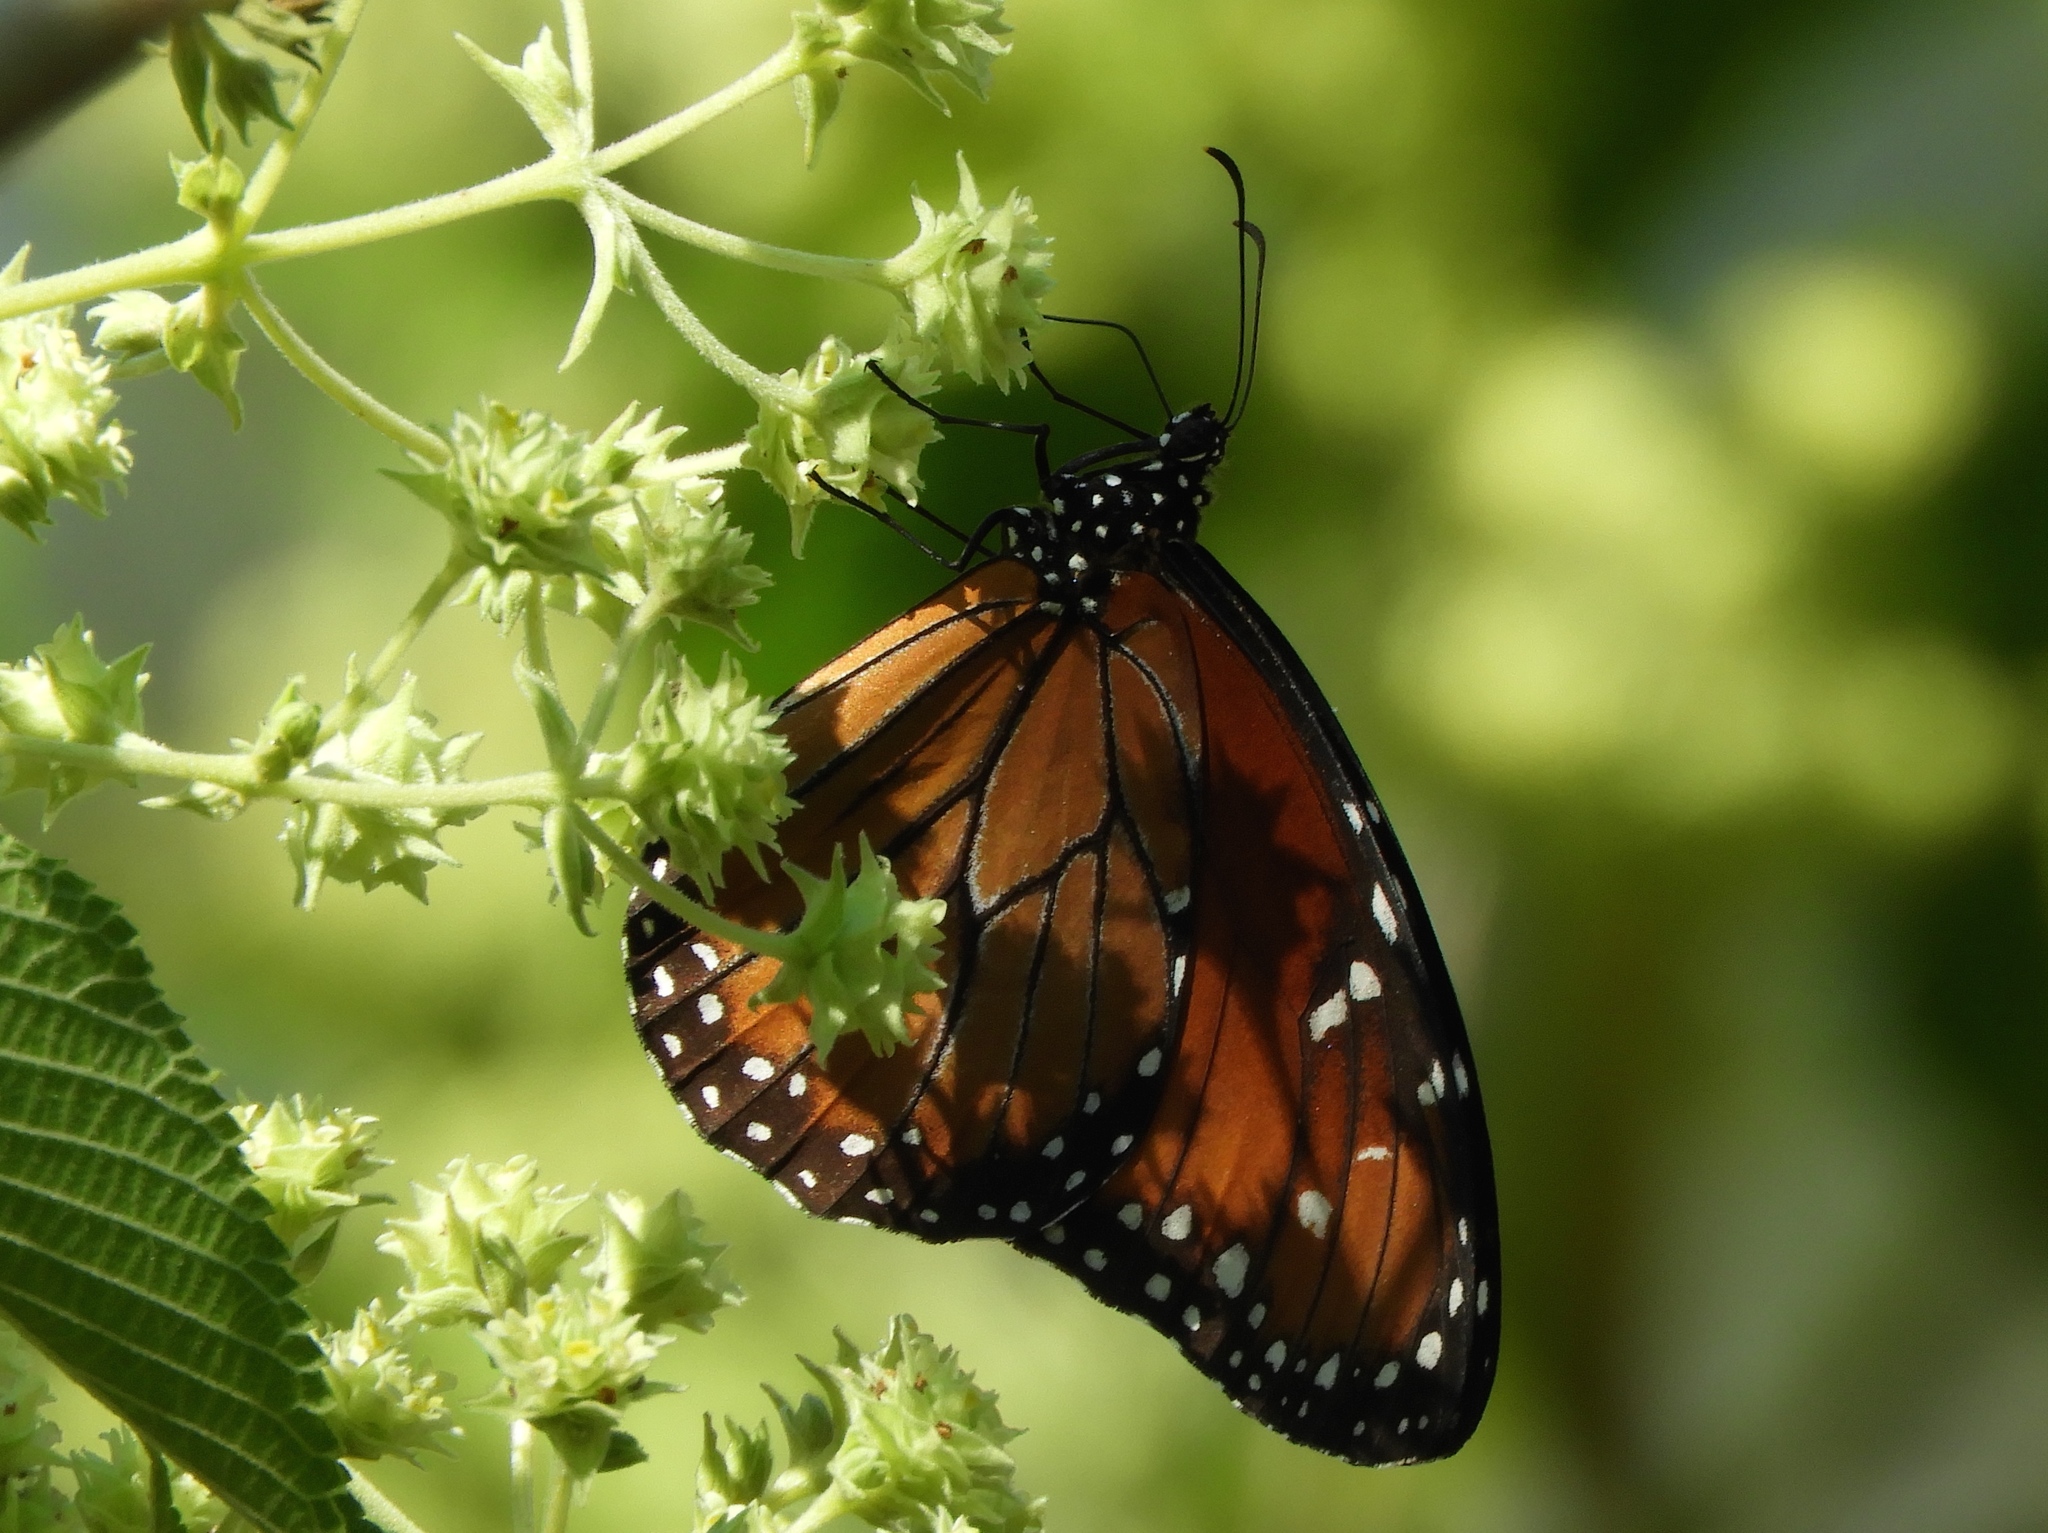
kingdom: Animalia
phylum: Arthropoda
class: Insecta
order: Lepidoptera
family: Nymphalidae
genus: Danaus
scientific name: Danaus eresimus
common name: Soldier
